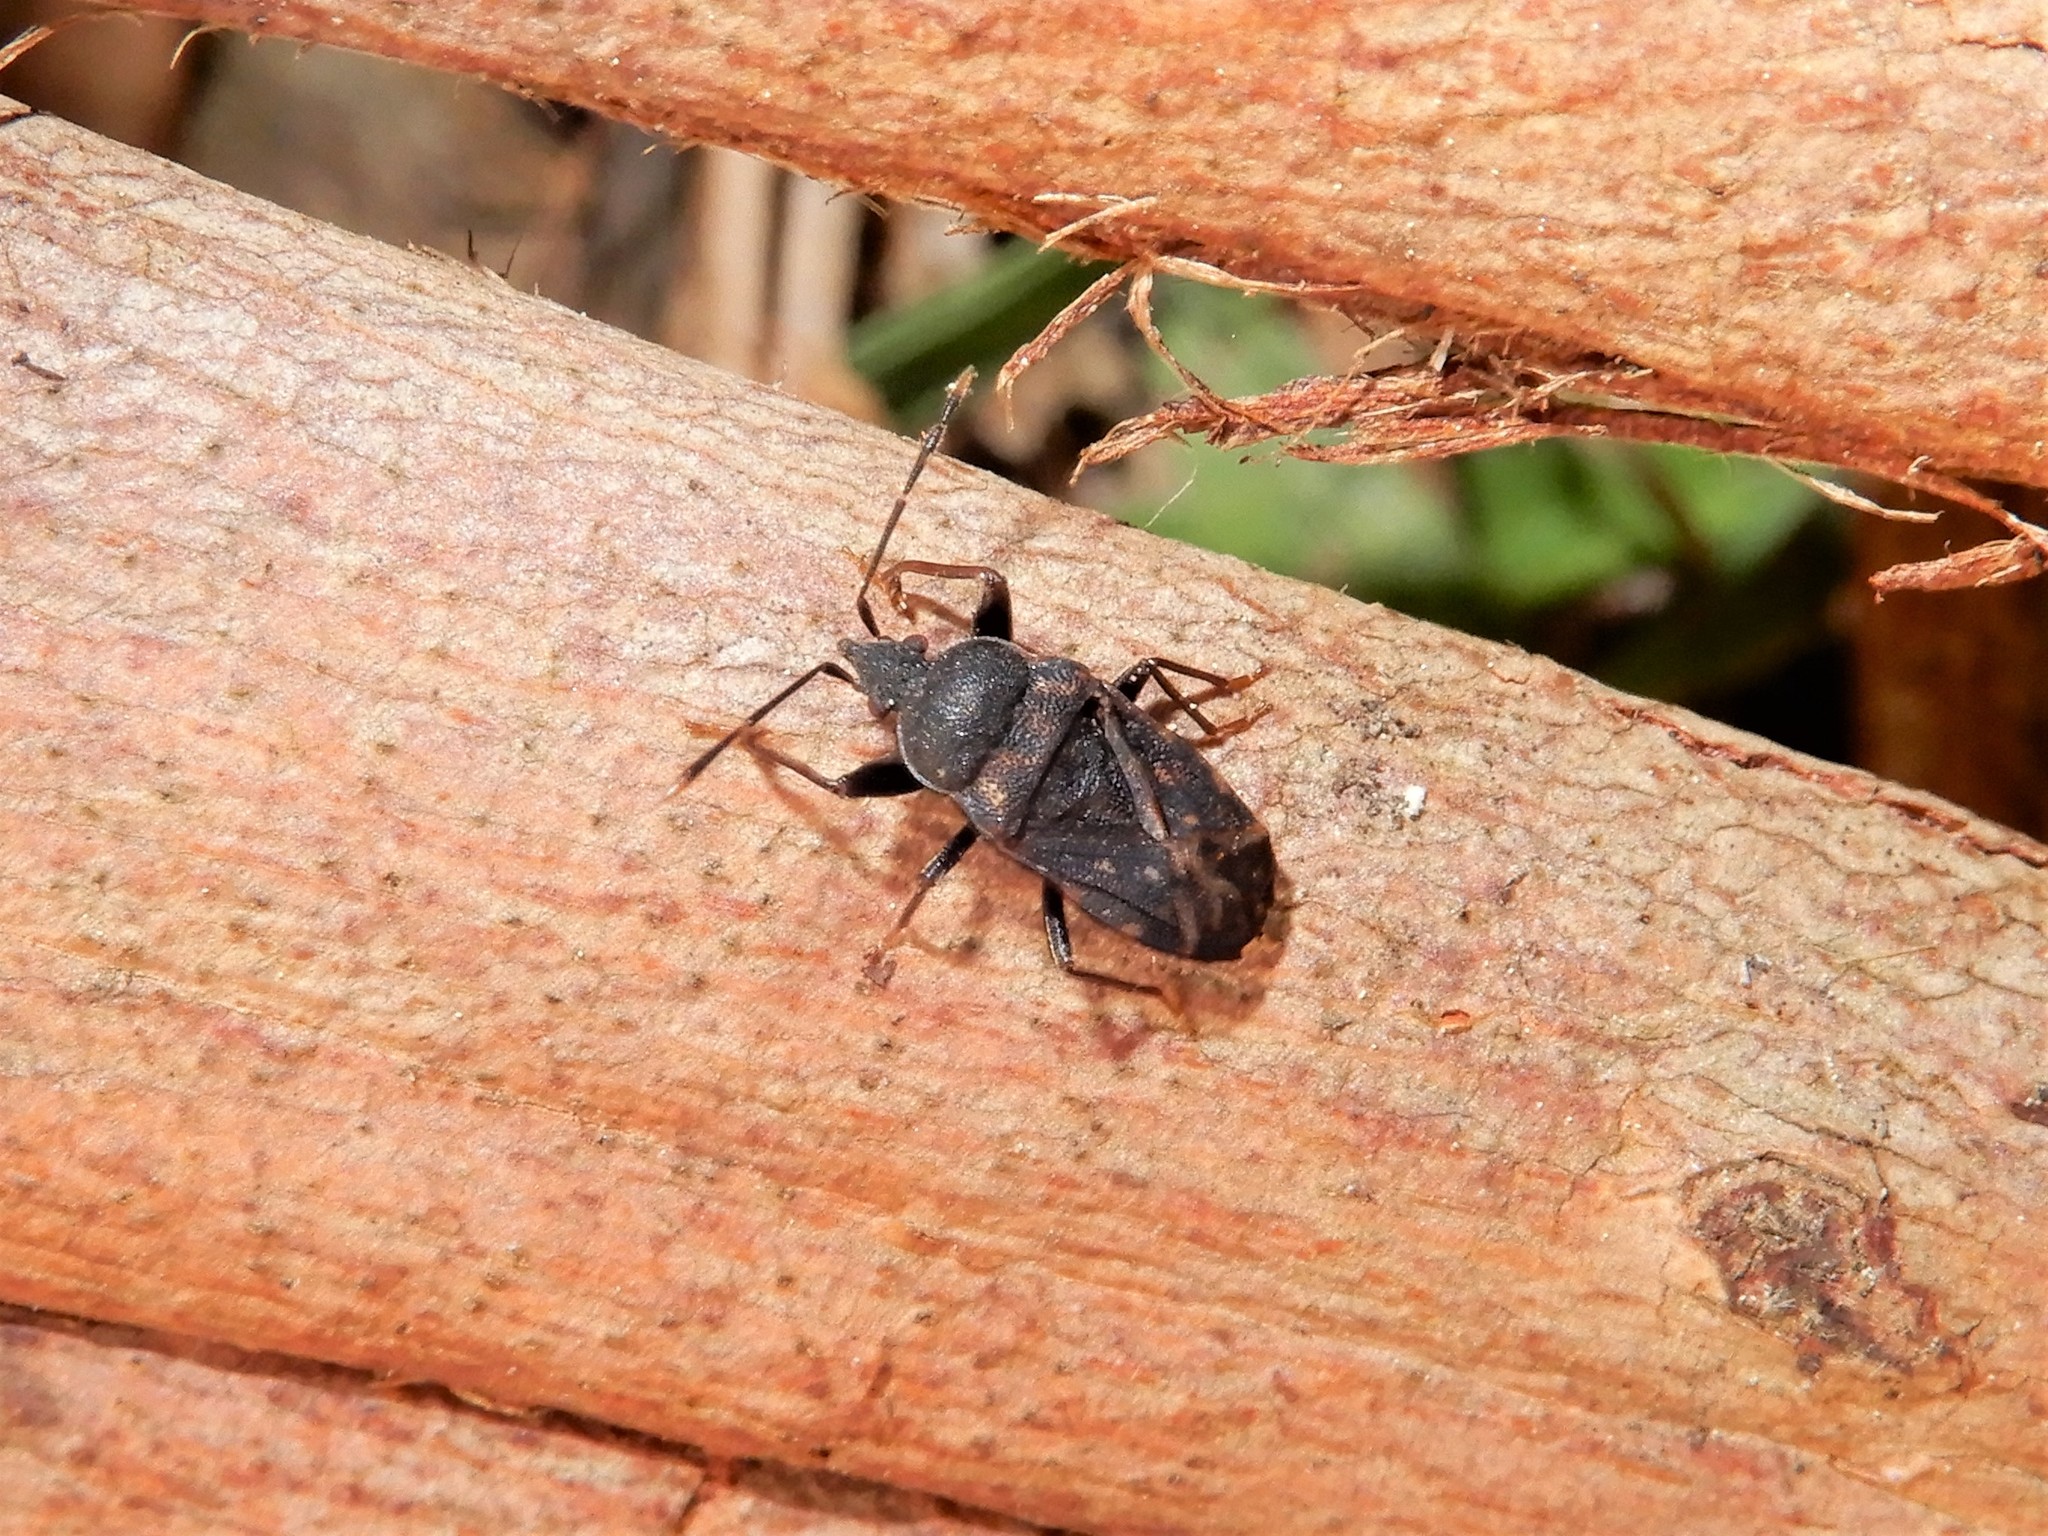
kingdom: Animalia
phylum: Arthropoda
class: Insecta
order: Hemiptera
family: Rhyparochromidae
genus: Paradrymus
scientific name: Paradrymus exilirostris
